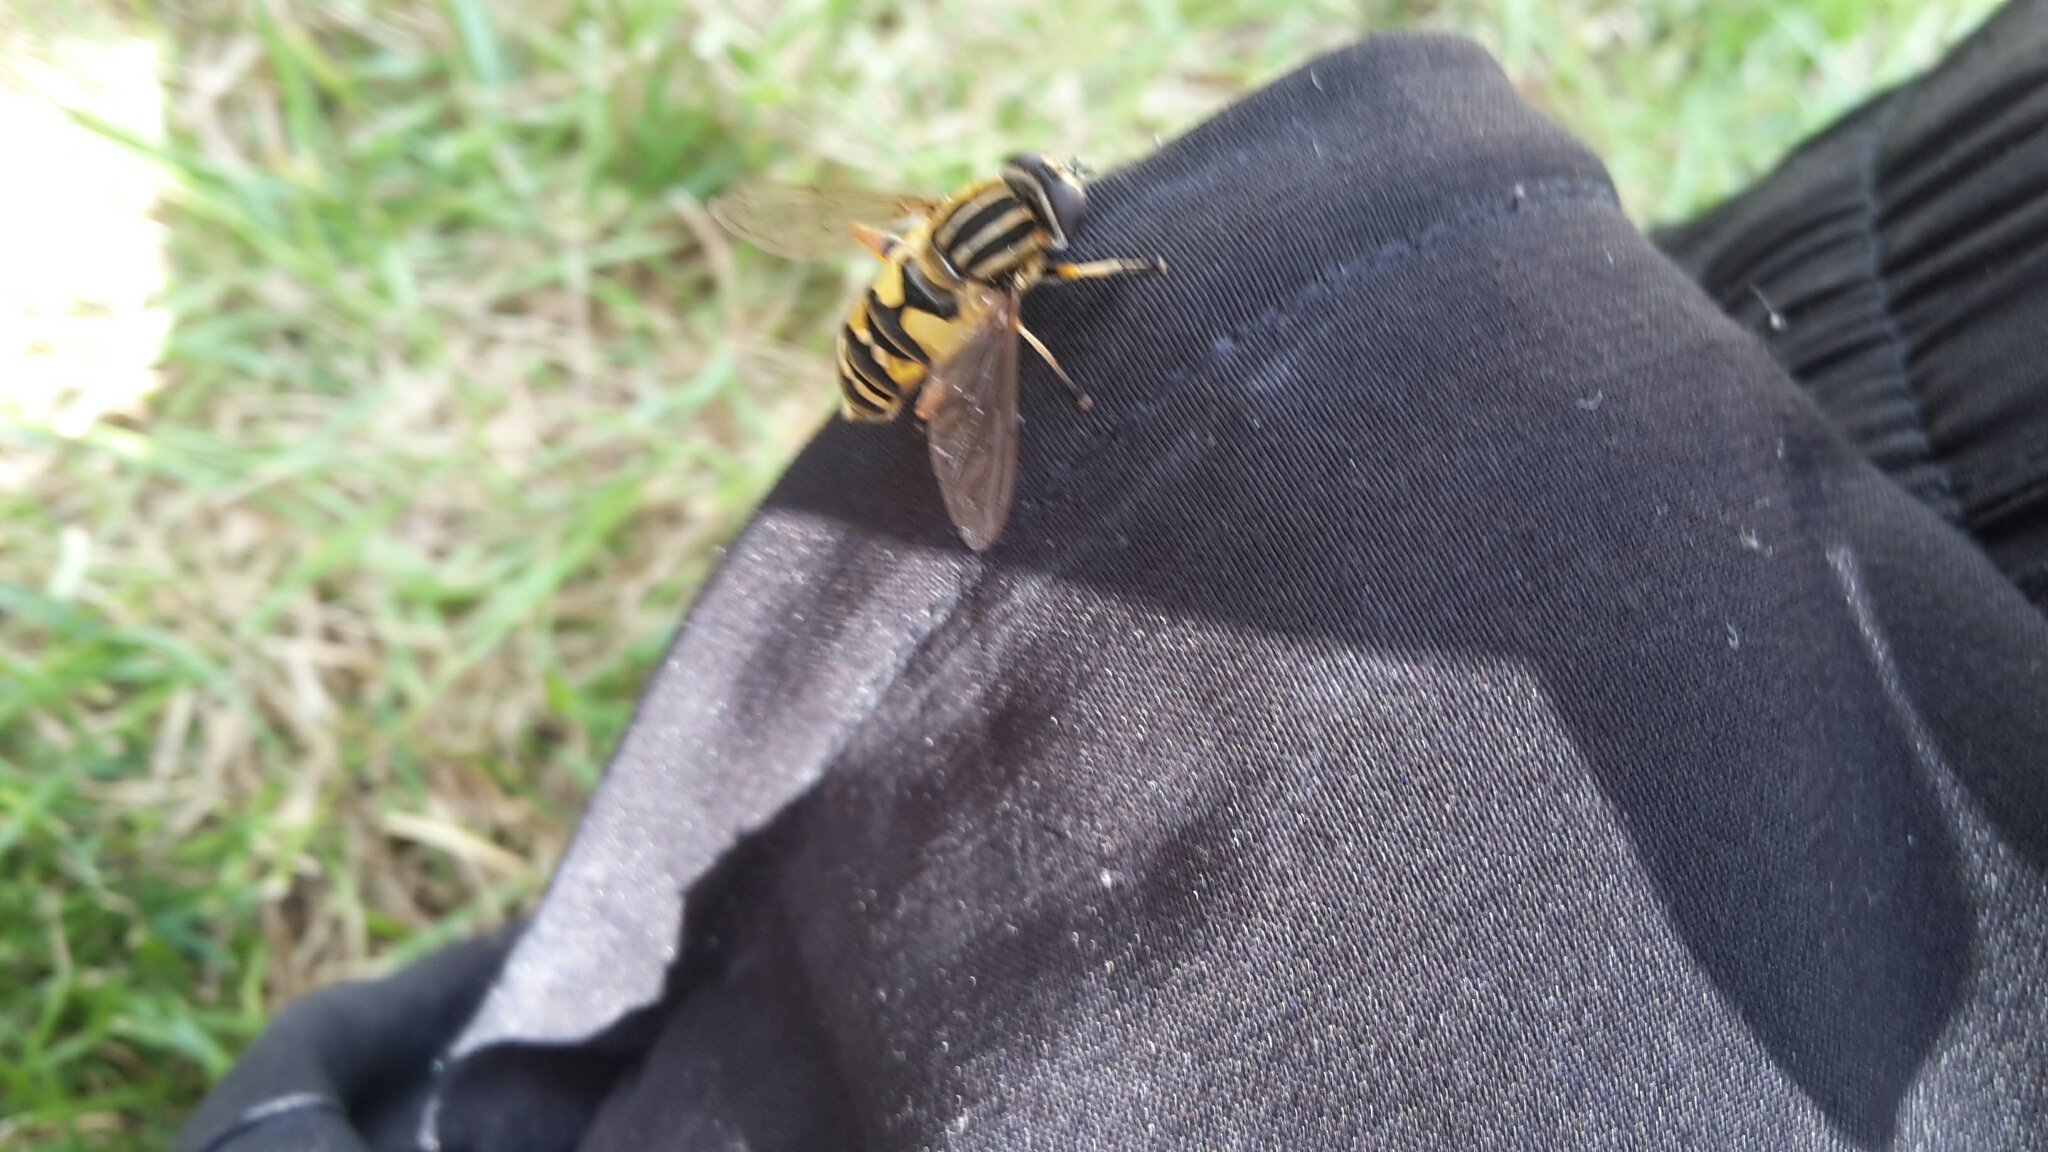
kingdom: Animalia
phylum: Arthropoda
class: Insecta
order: Diptera
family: Syrphidae
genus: Helophilus
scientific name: Helophilus pendulus
